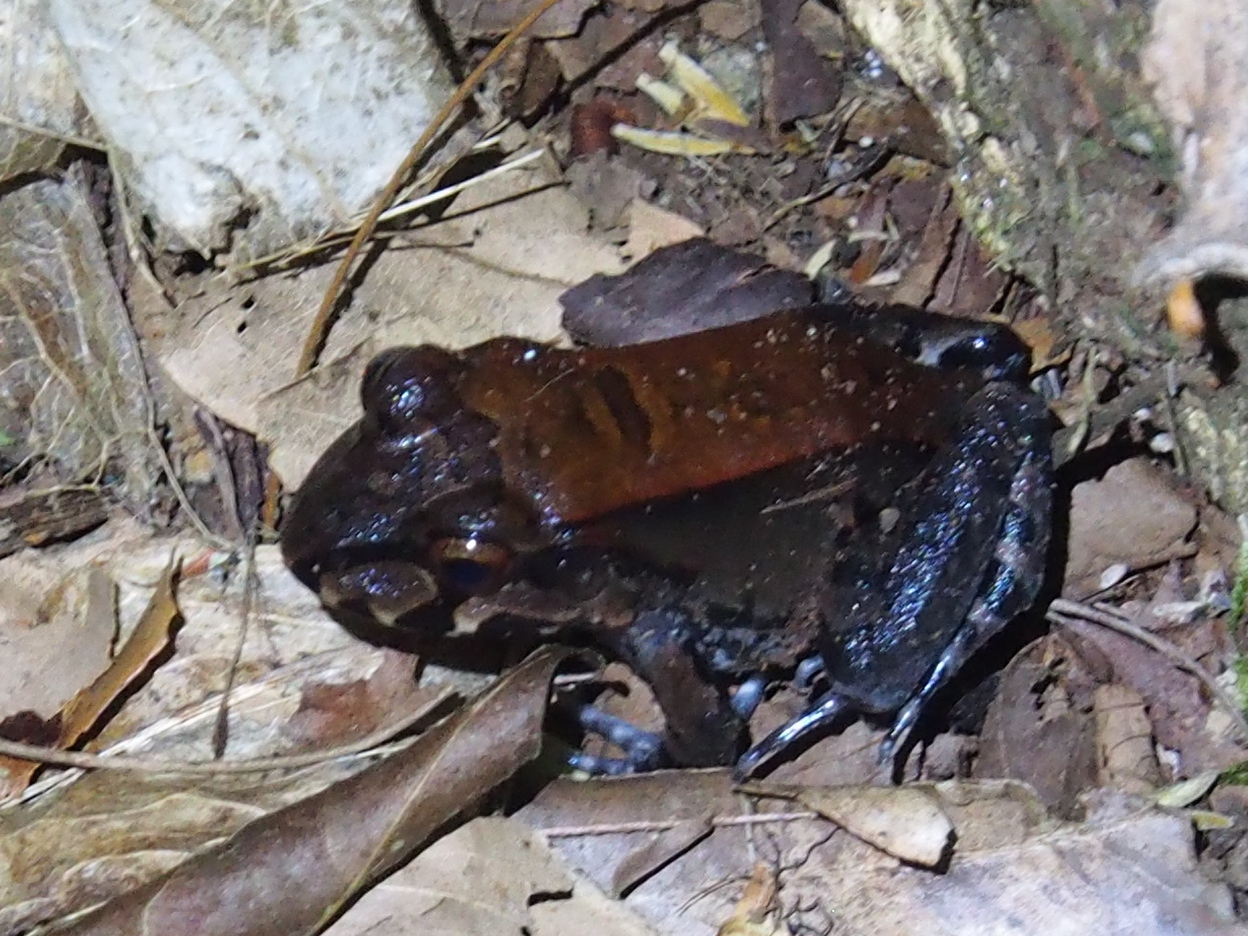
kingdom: Animalia
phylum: Chordata
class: Amphibia
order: Anura
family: Leptodactylidae
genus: Leptodactylus
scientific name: Leptodactylus savagei
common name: Savage's thin-toed frog
